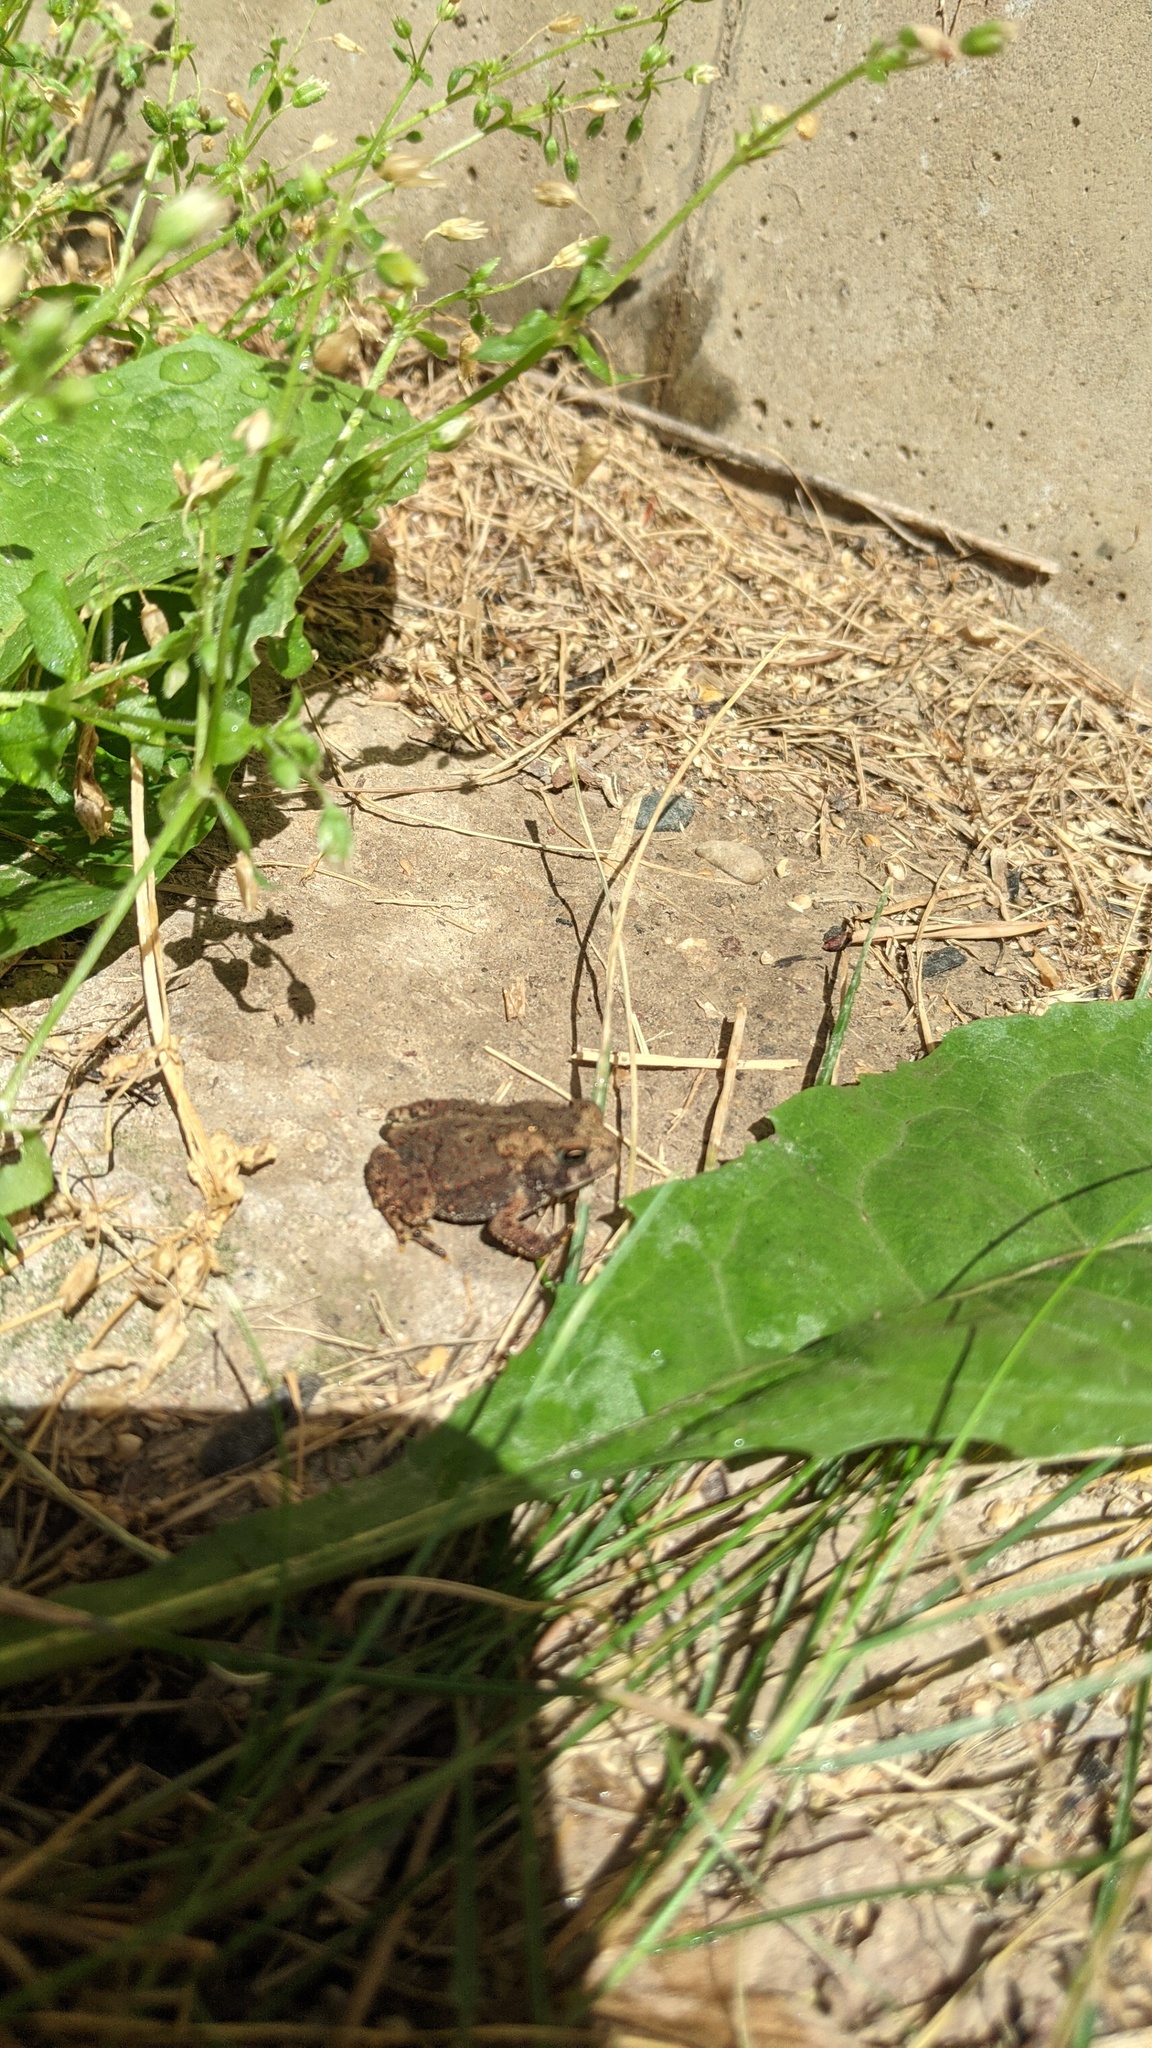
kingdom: Animalia
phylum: Chordata
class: Amphibia
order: Anura
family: Bufonidae
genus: Anaxyrus
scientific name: Anaxyrus americanus
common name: American toad
